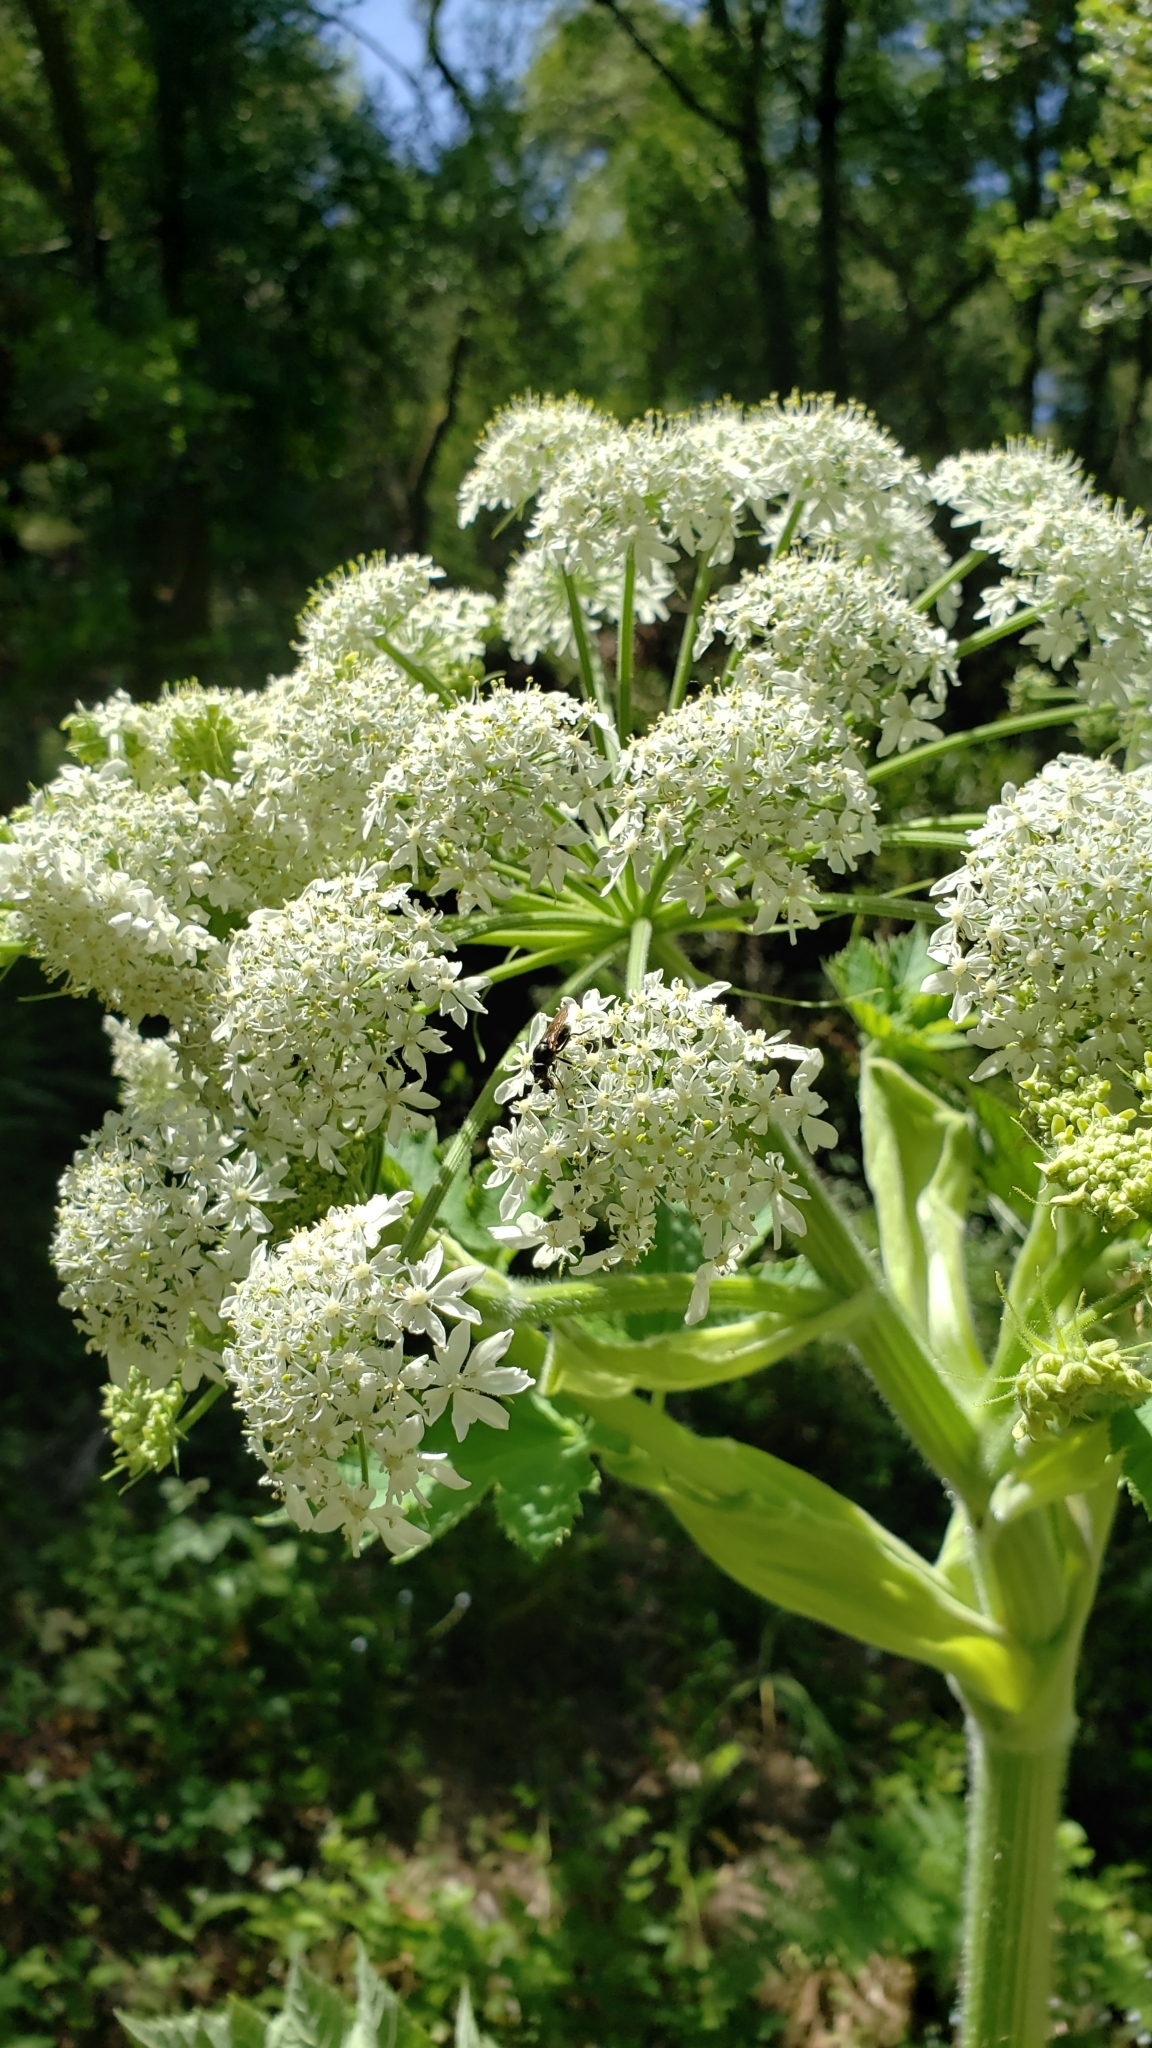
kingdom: Plantae
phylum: Tracheophyta
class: Magnoliopsida
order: Apiales
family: Apiaceae
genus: Heracleum
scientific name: Heracleum maximum
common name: American cow parsnip
